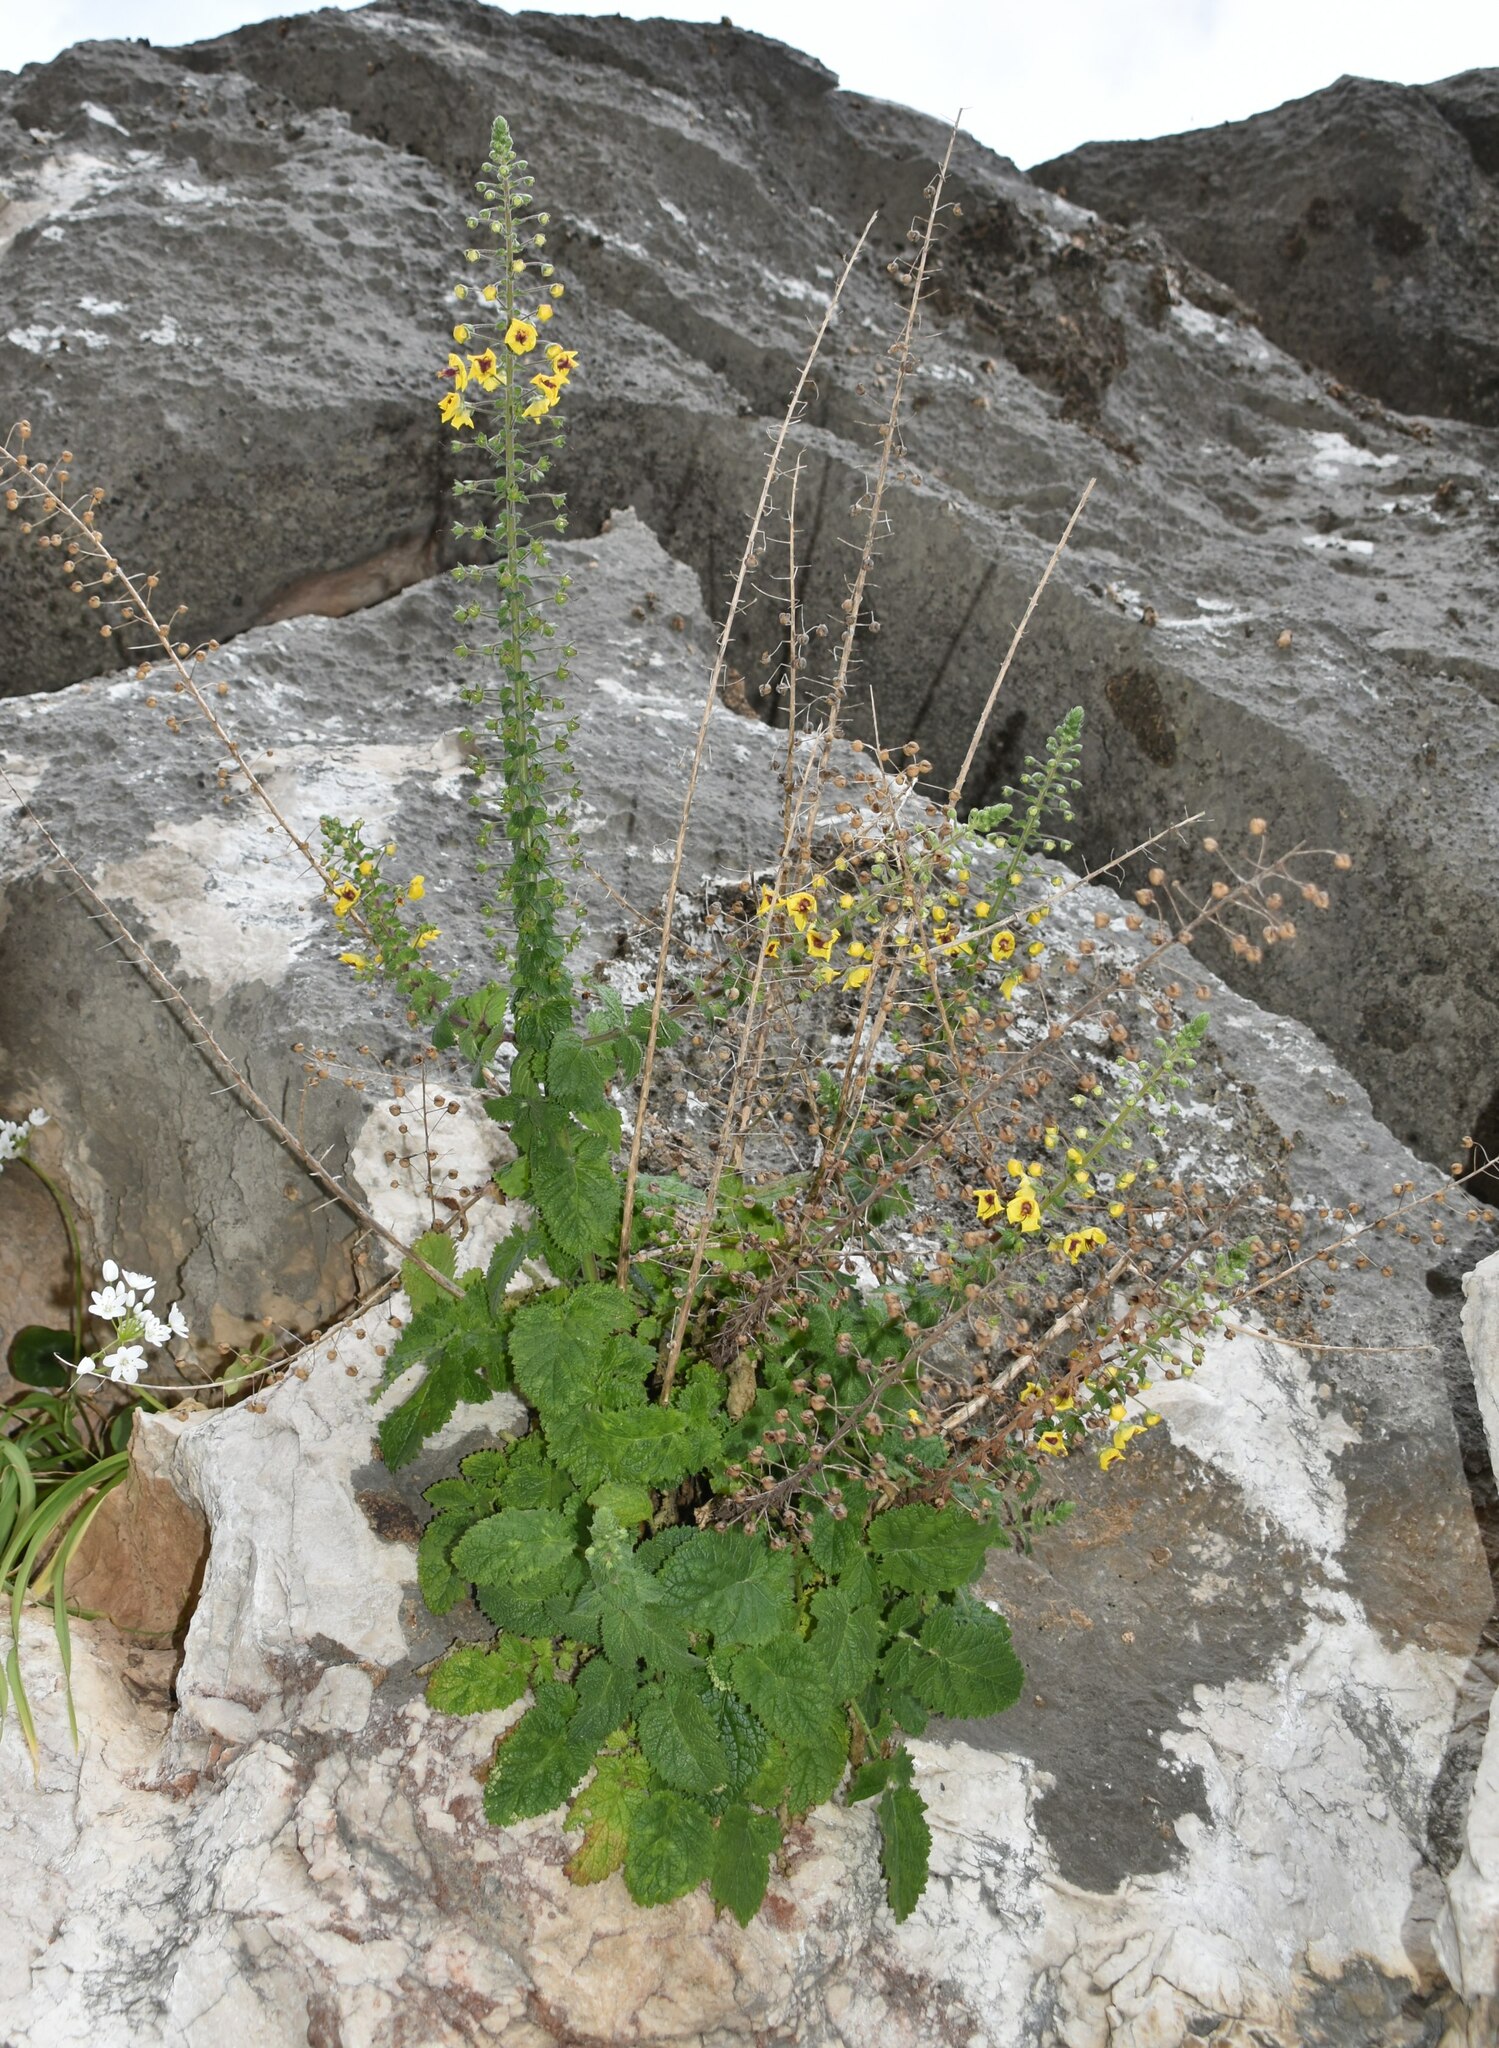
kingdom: Plantae
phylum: Tracheophyta
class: Magnoliopsida
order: Lamiales
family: Scrophulariaceae
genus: Verbascum
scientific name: Verbascum levanticum
